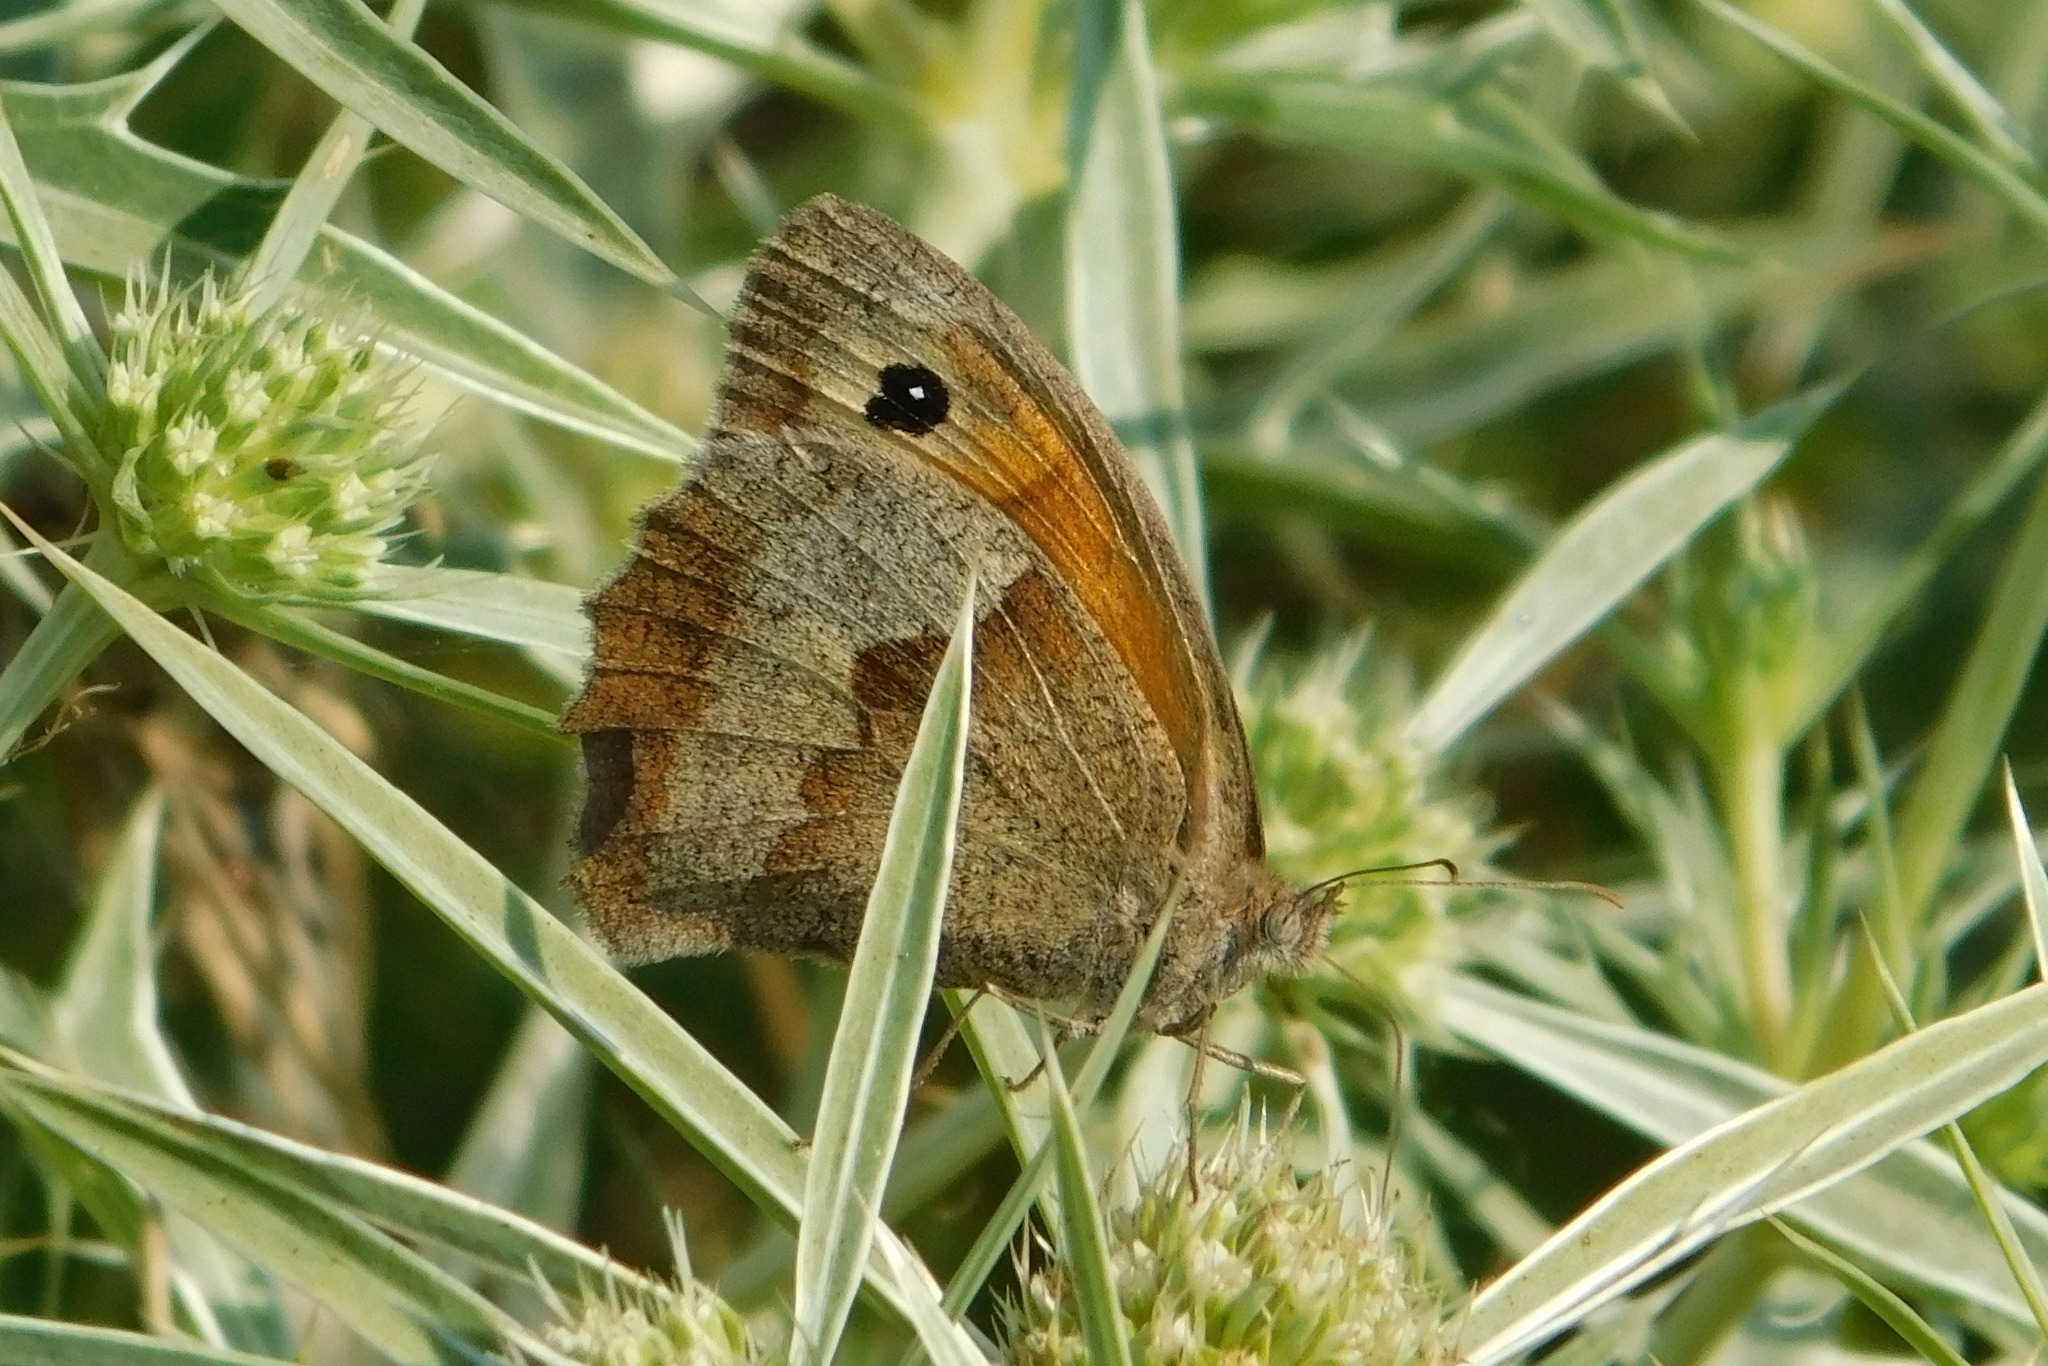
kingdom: Animalia
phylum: Arthropoda
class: Insecta
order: Lepidoptera
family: Nymphalidae
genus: Maniola
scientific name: Maniola jurtina
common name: Meadow brown
